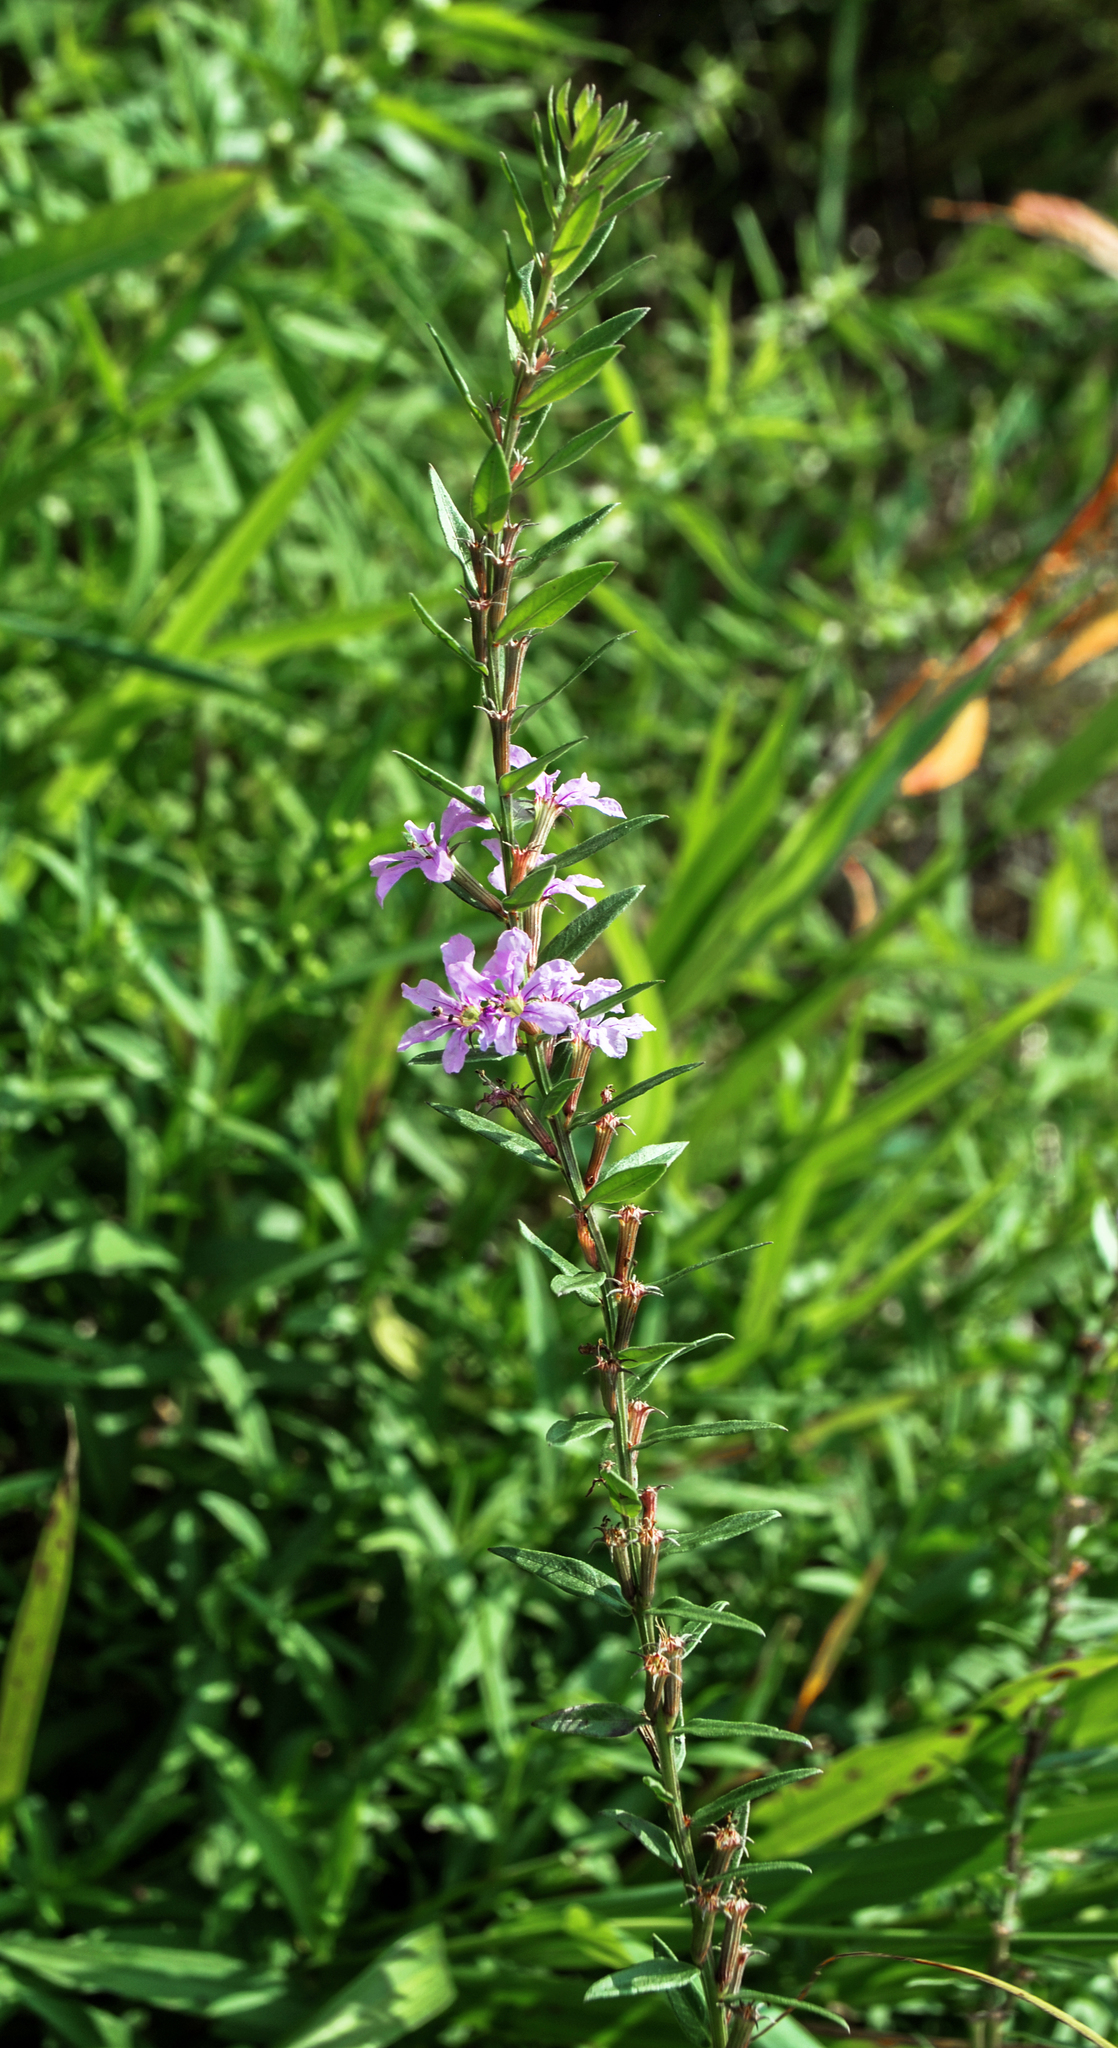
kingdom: Plantae
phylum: Tracheophyta
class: Magnoliopsida
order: Myrtales
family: Lythraceae
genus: Lythrum
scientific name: Lythrum alatum
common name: Winged loosestrife
